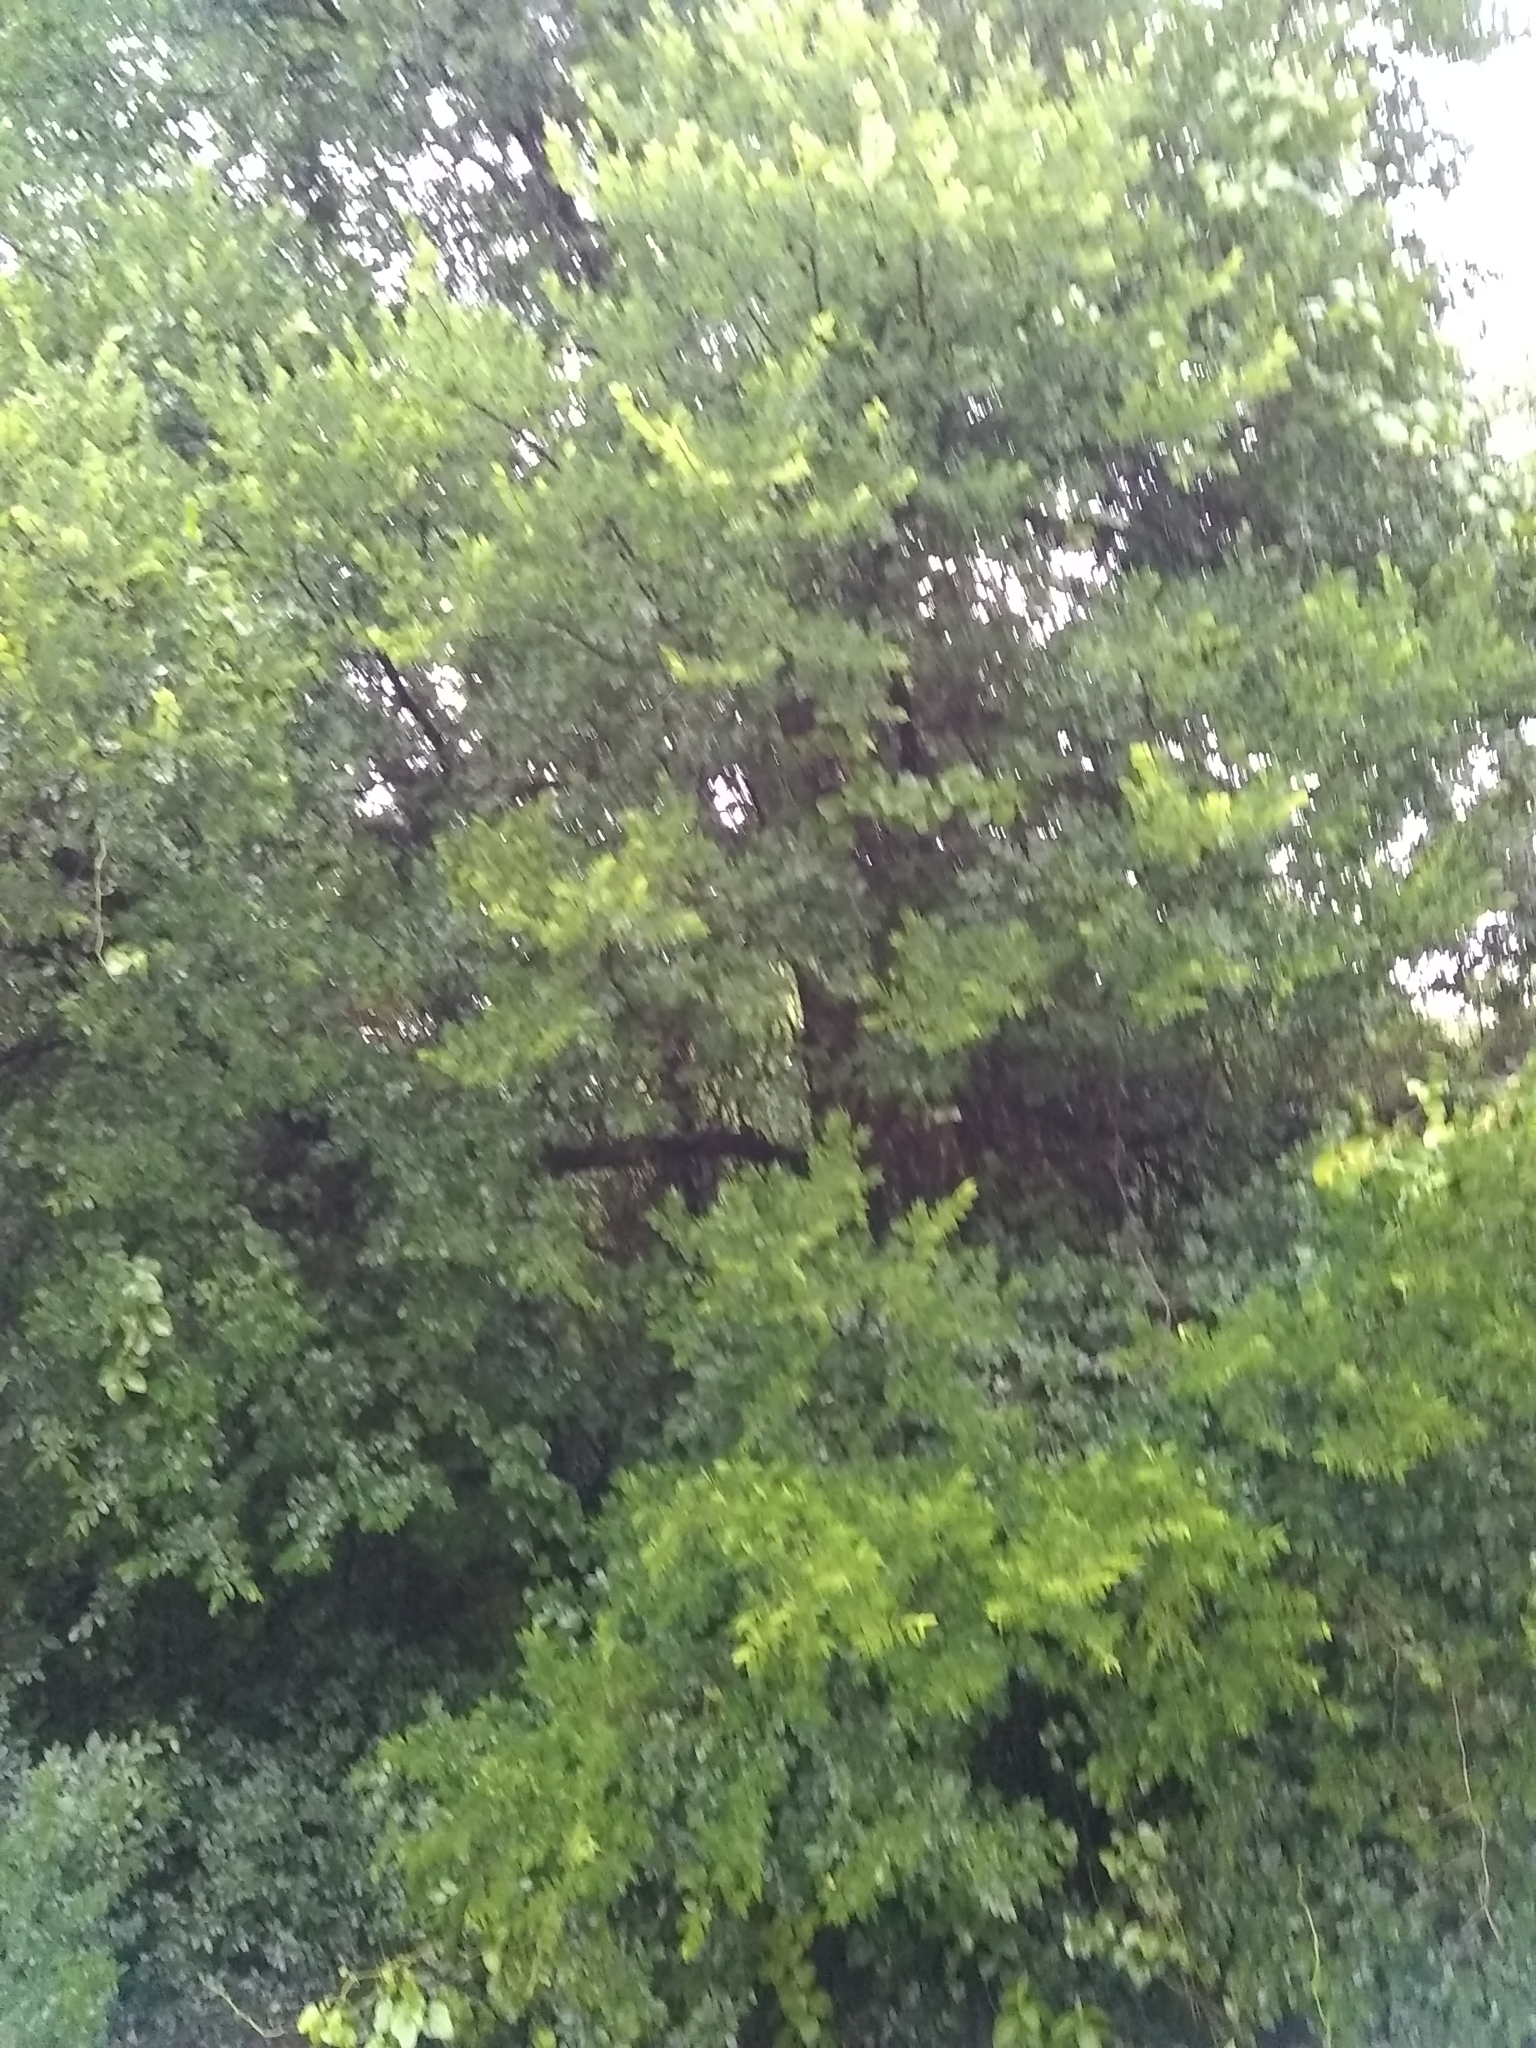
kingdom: Plantae
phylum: Tracheophyta
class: Magnoliopsida
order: Rosales
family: Ulmaceae
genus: Ulmus
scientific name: Ulmus crassifolia
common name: Basket elm
